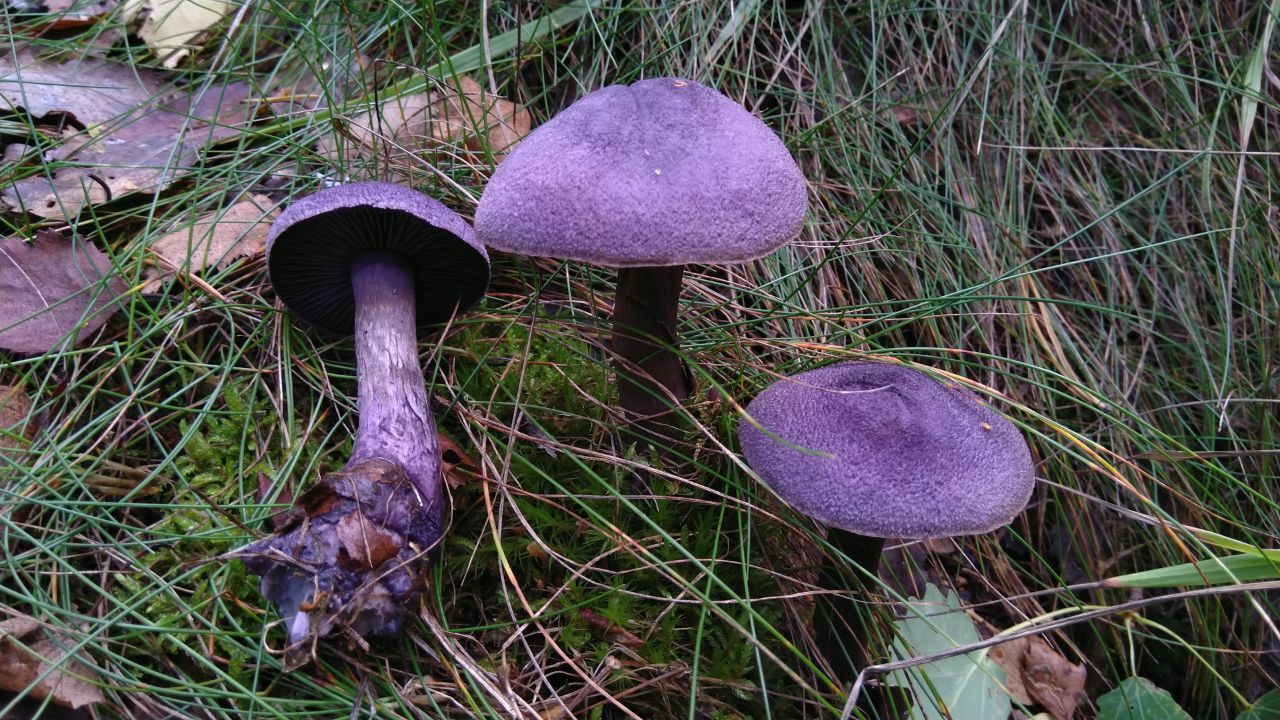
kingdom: Fungi
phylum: Basidiomycota
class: Agaricomycetes
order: Agaricales
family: Cortinariaceae
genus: Cortinarius
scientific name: Cortinarius violaceus
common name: Violet webcap
